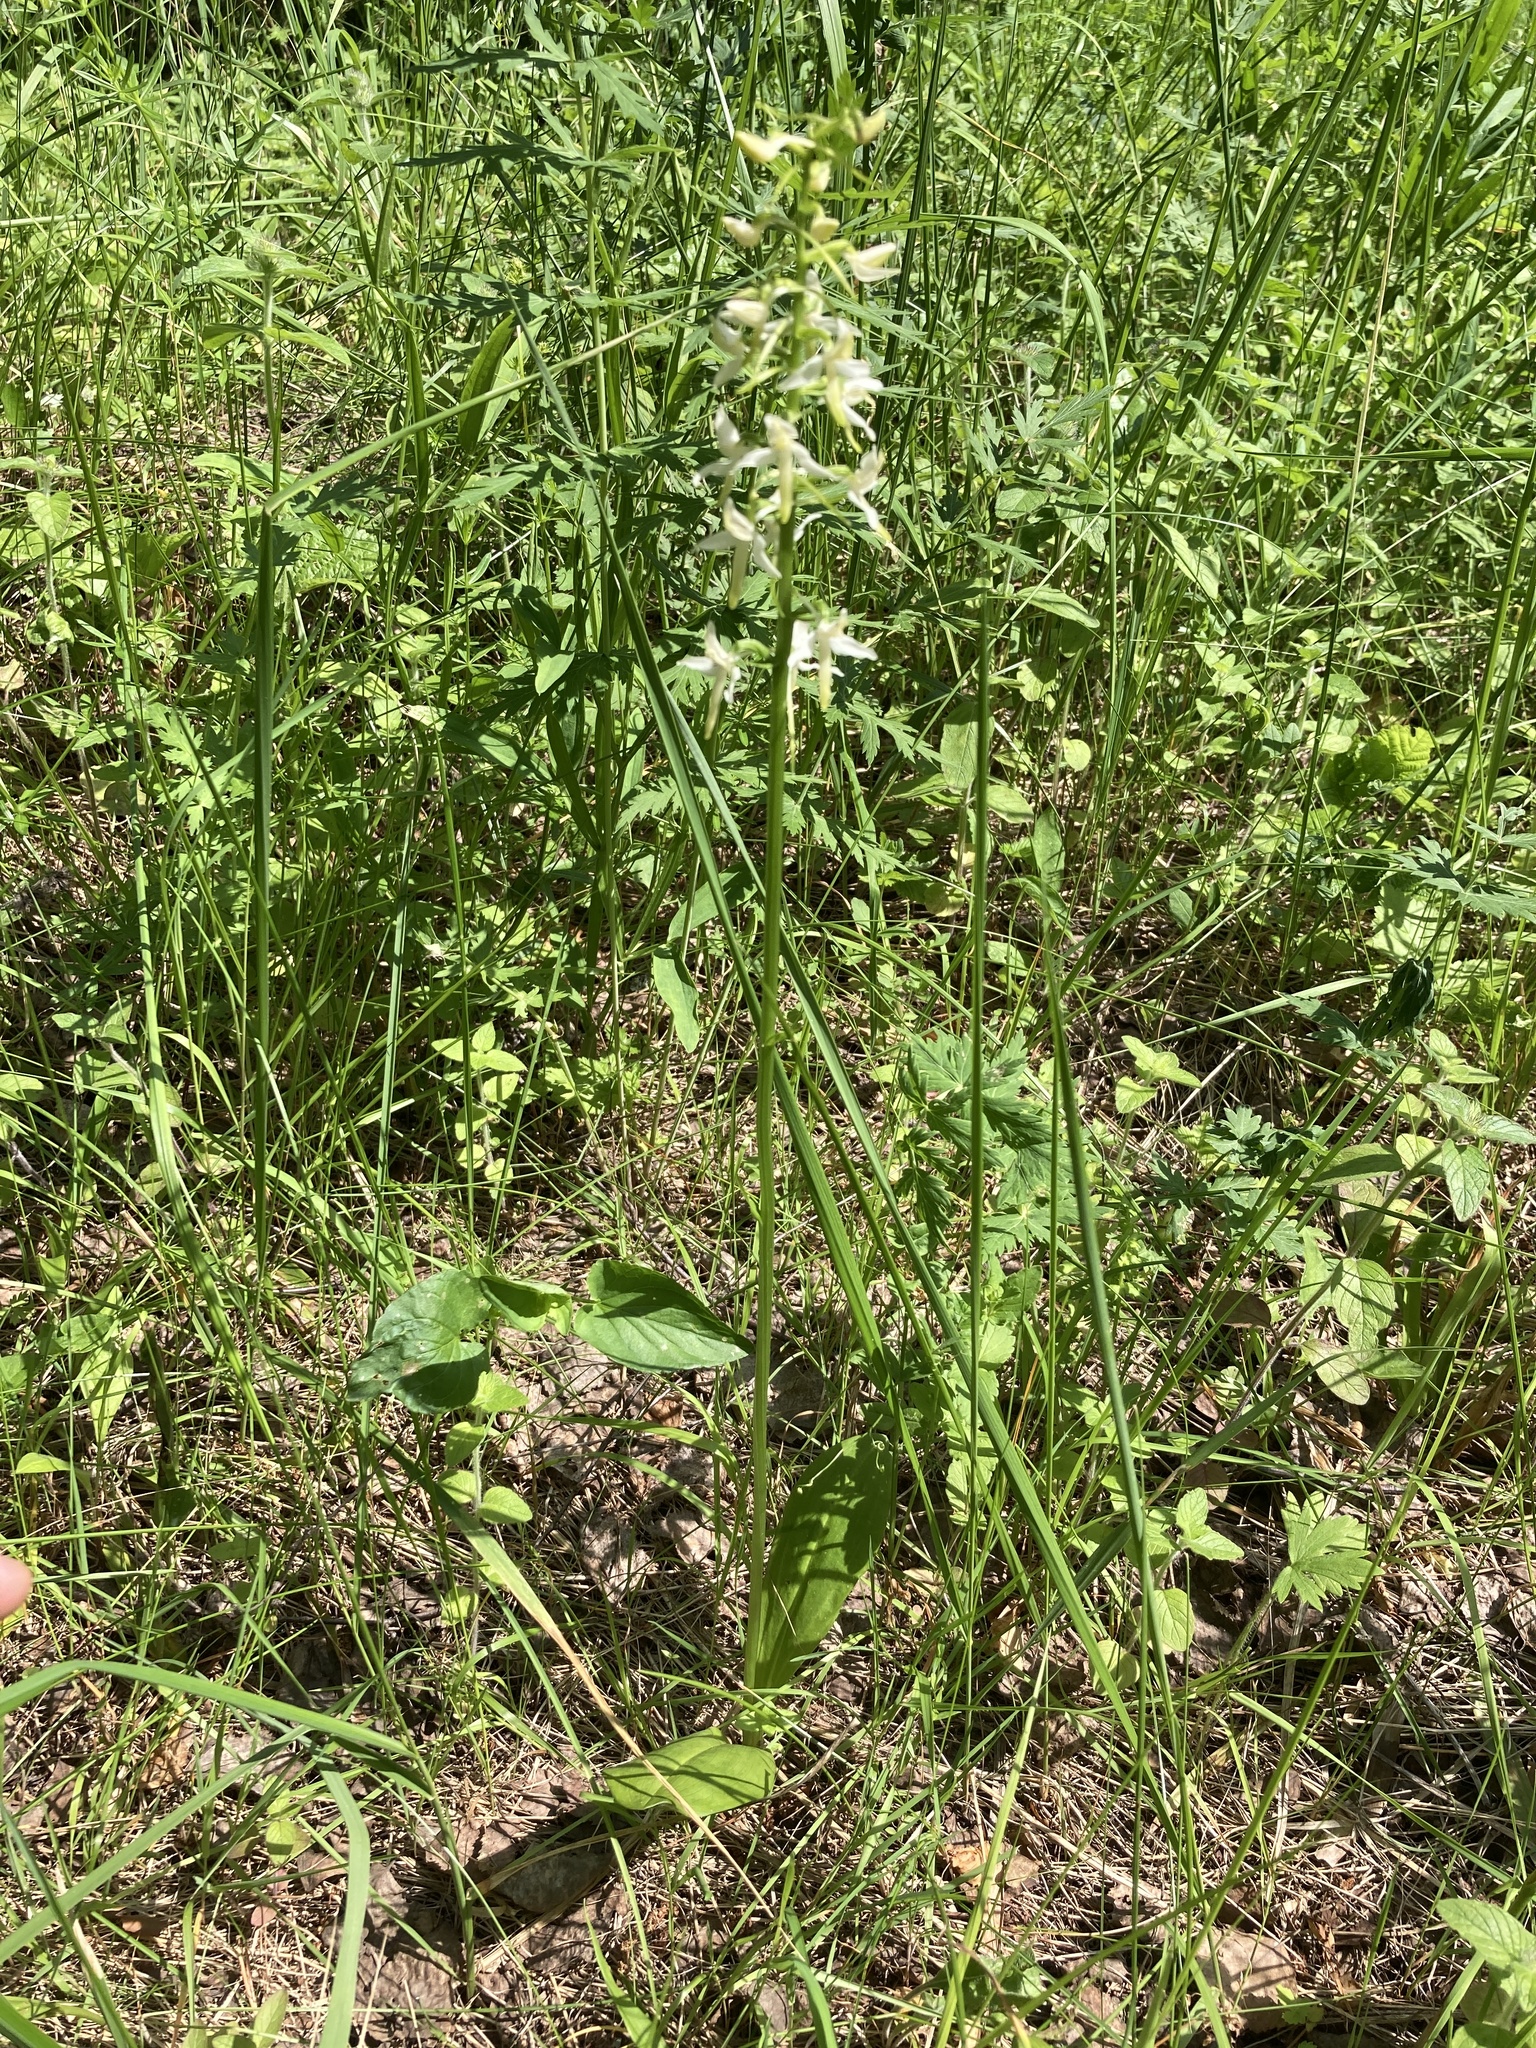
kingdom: Plantae
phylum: Tracheophyta
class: Liliopsida
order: Asparagales
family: Orchidaceae
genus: Platanthera
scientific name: Platanthera bifolia
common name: Lesser butterfly-orchid
